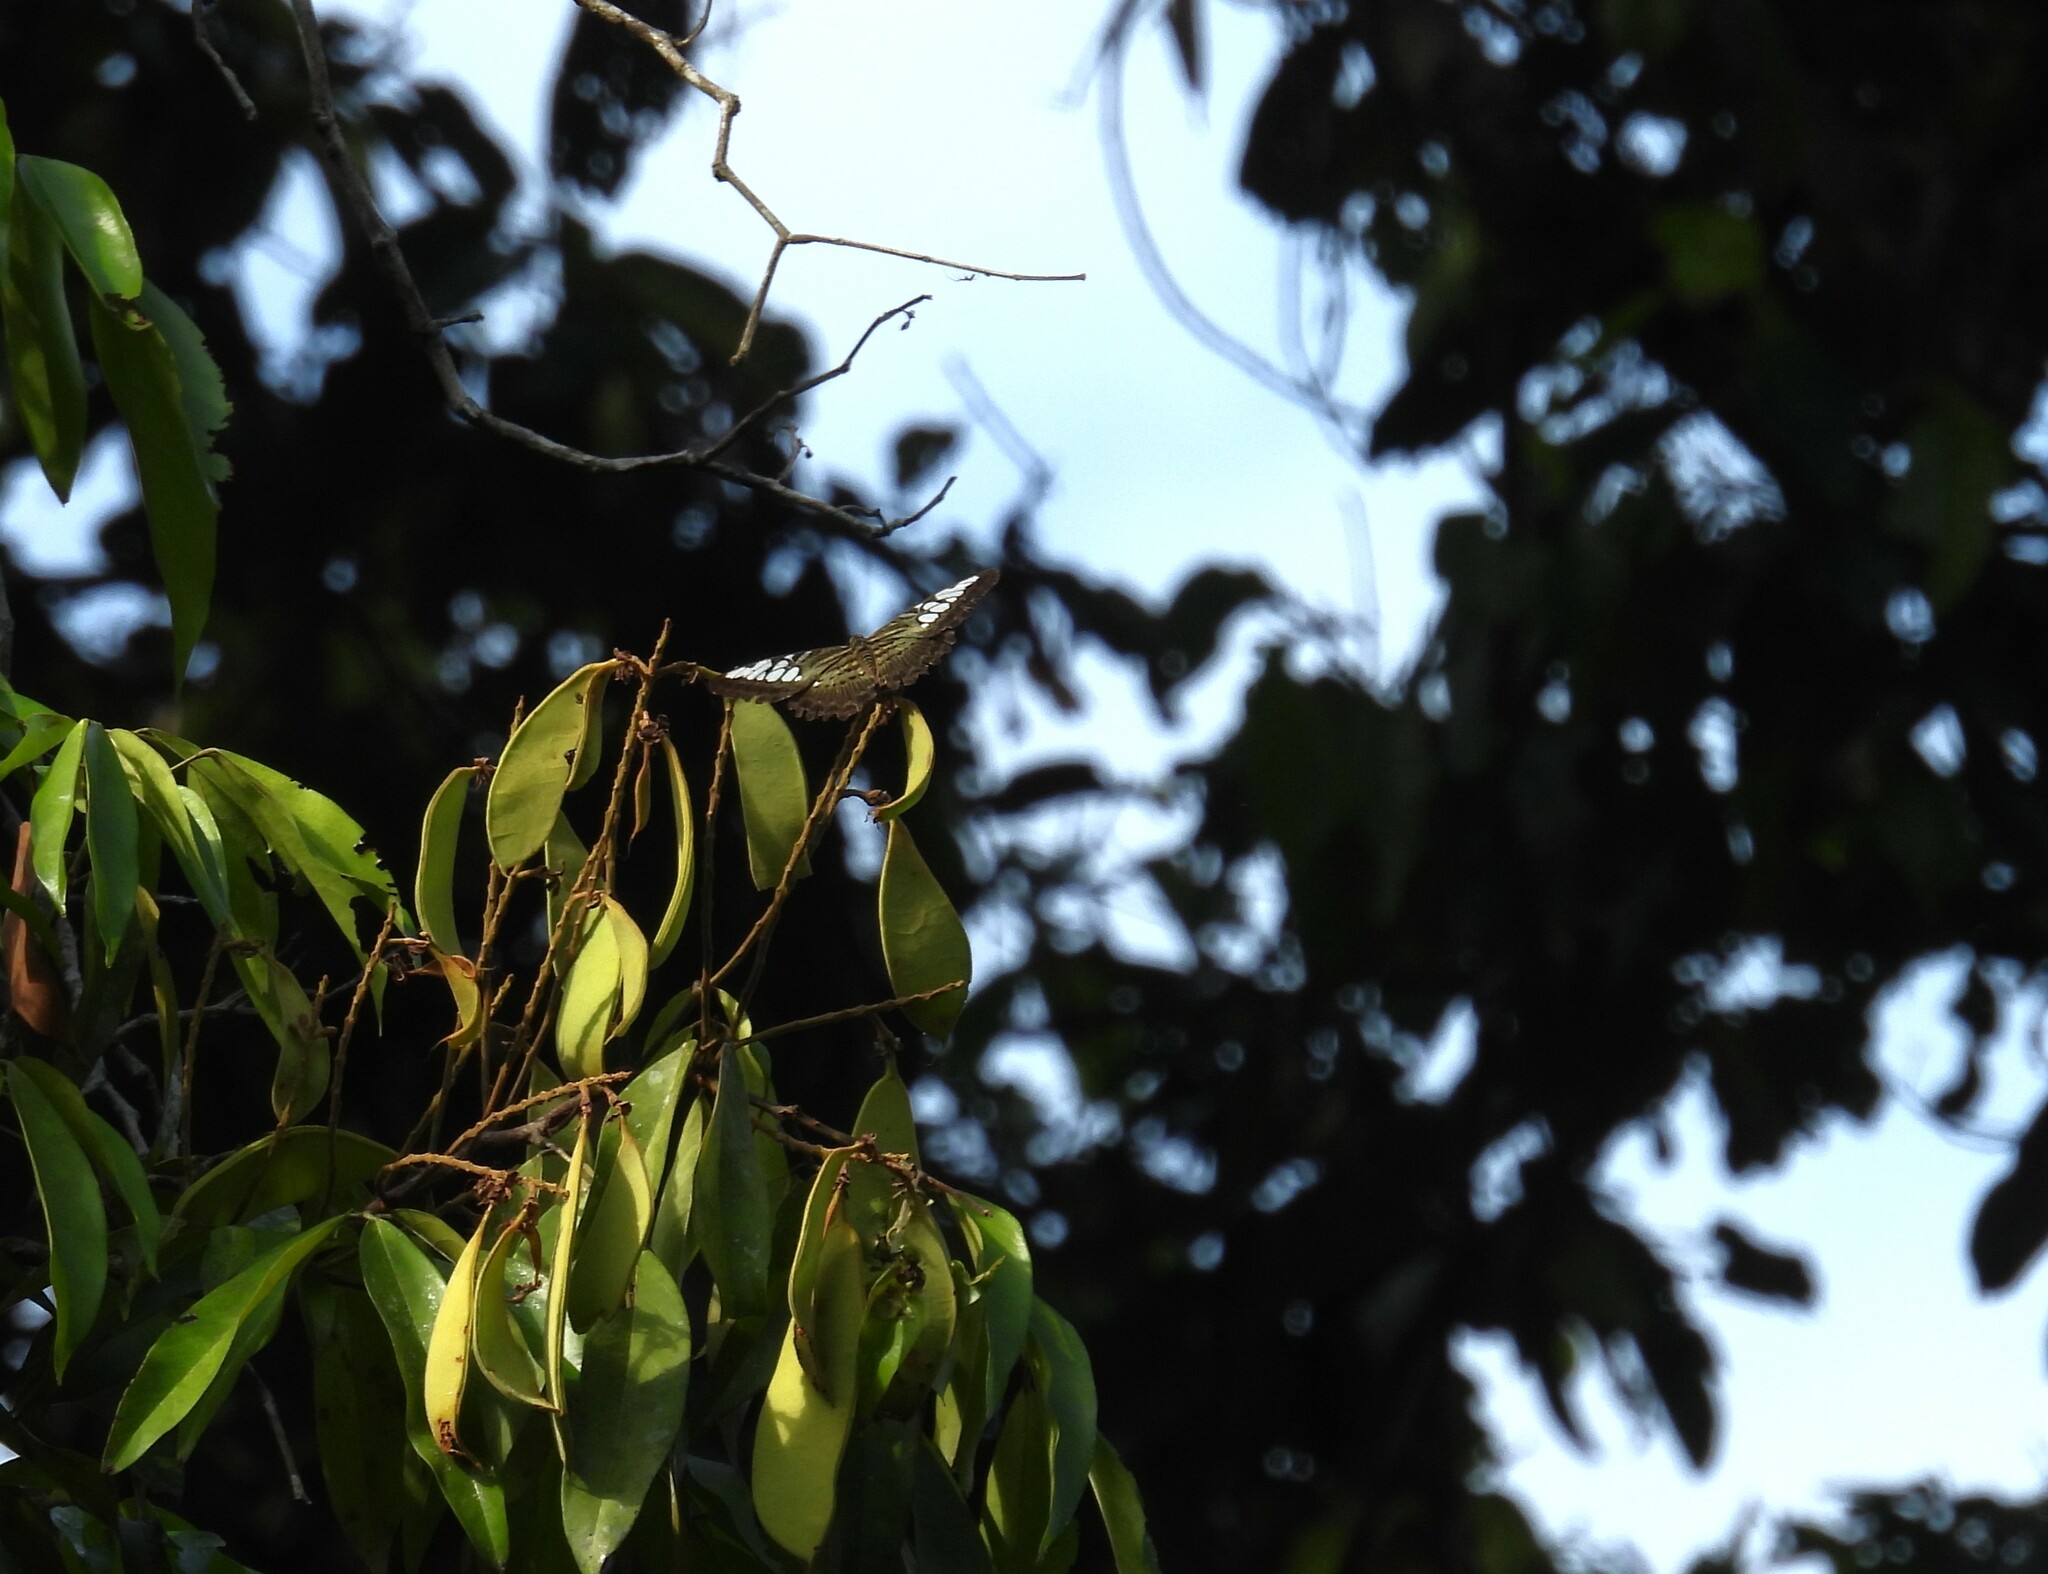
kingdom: Animalia
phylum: Arthropoda
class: Insecta
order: Lepidoptera
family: Nymphalidae
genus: Kallima
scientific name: Kallima sylvia
